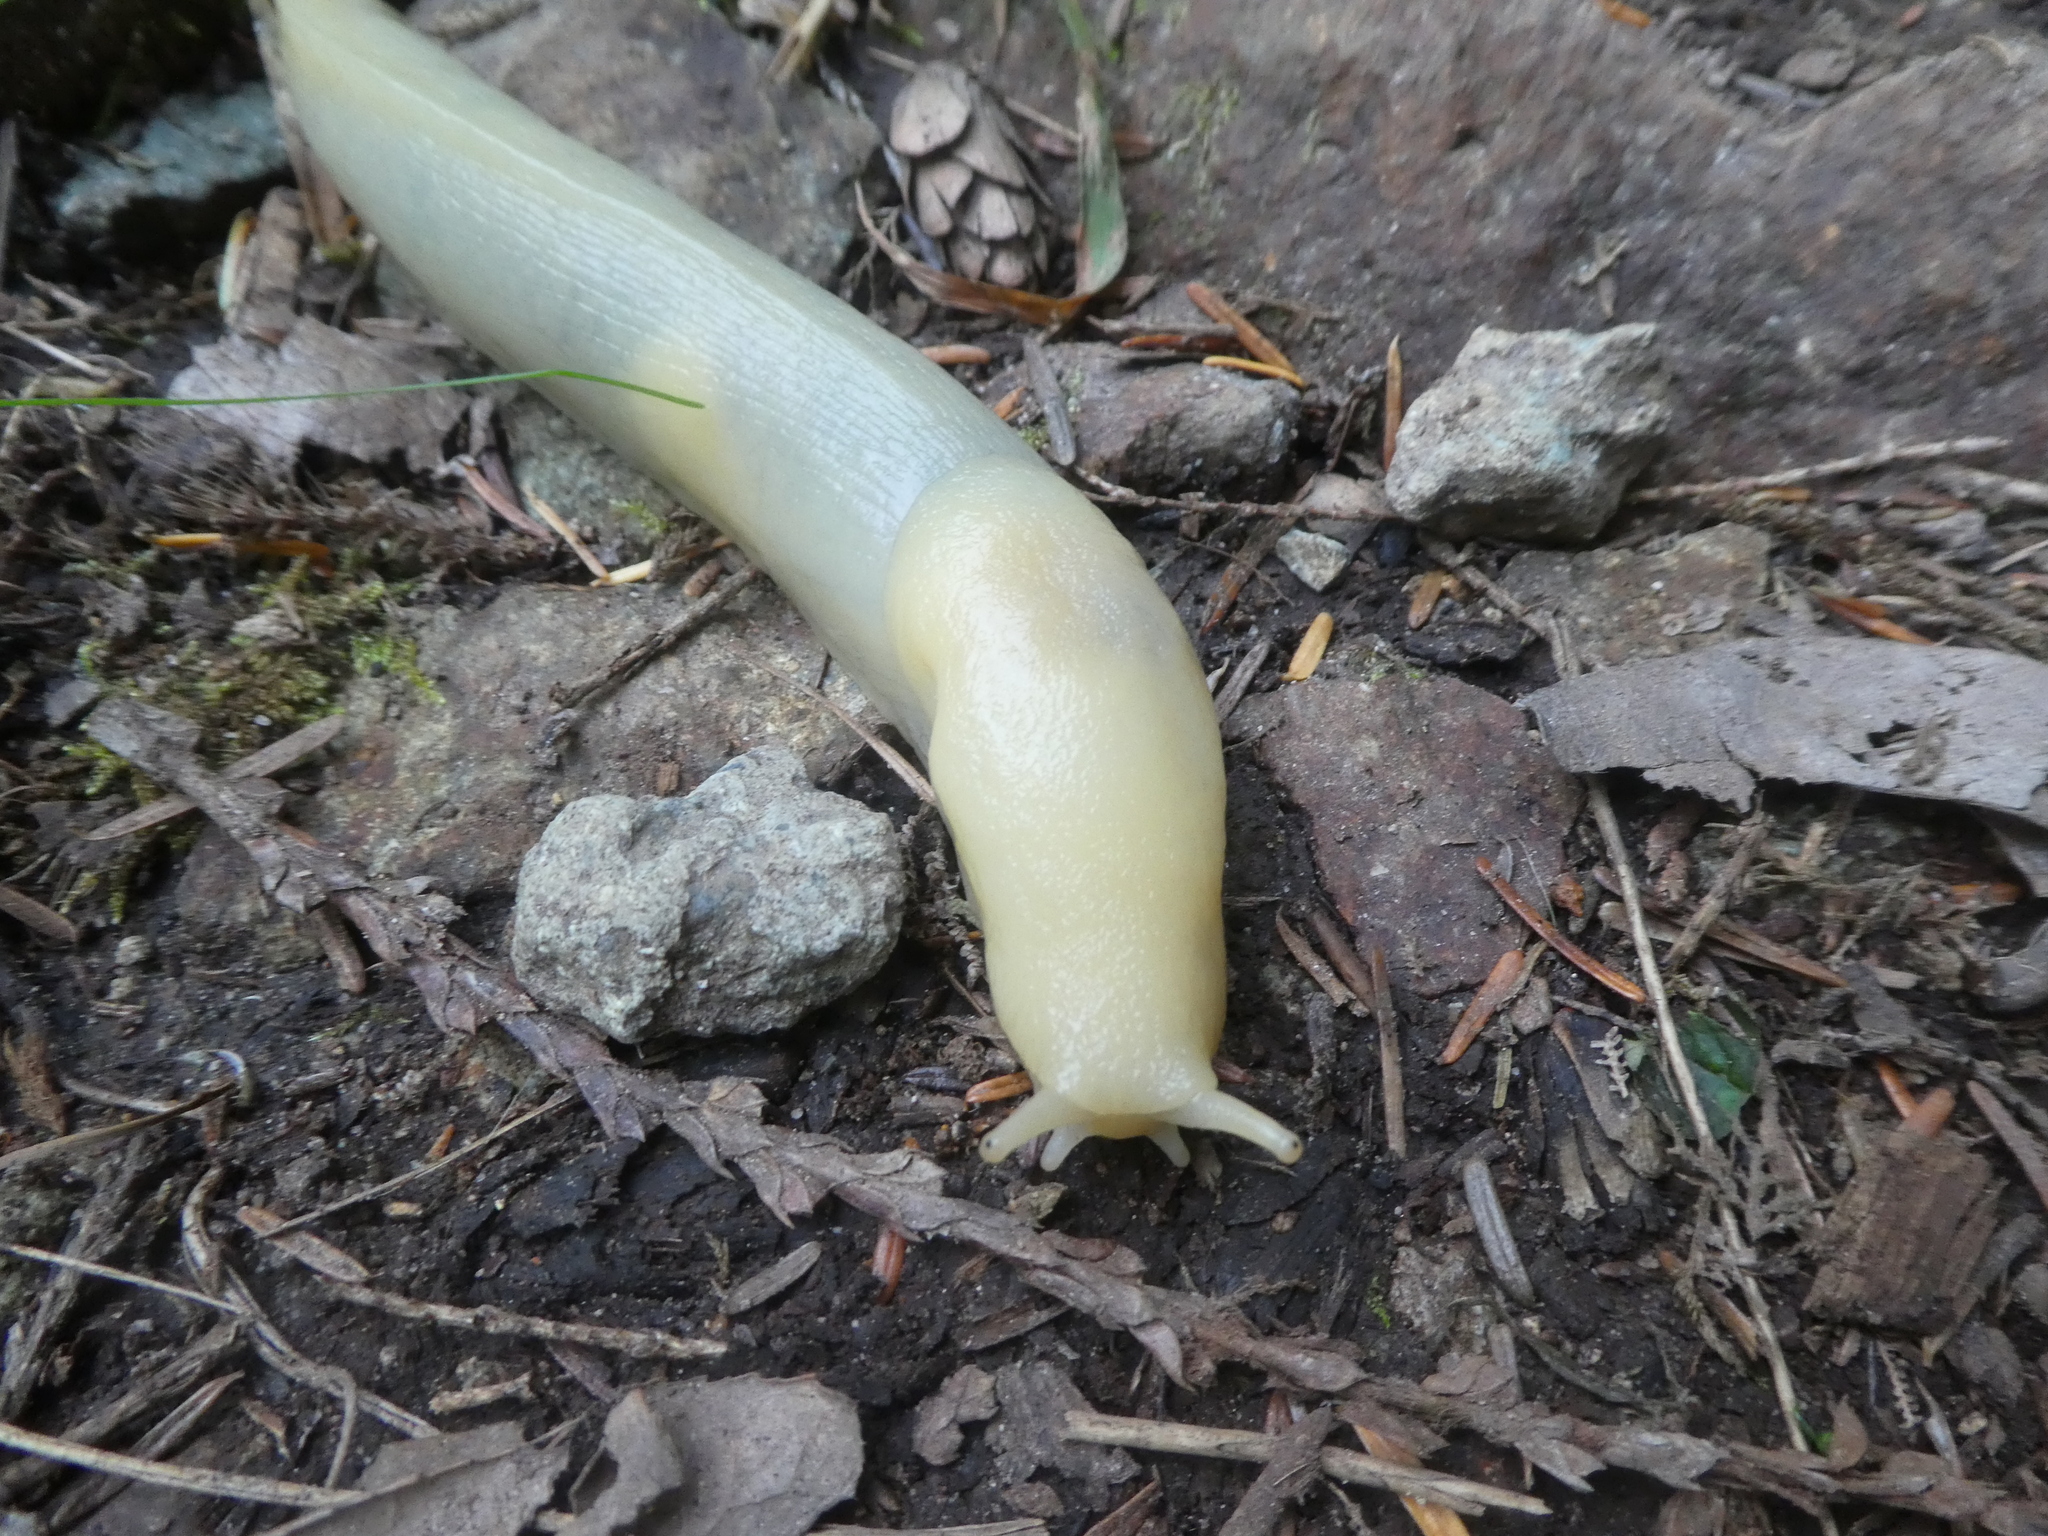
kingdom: Animalia
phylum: Mollusca
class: Gastropoda
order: Stylommatophora
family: Ariolimacidae
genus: Ariolimax
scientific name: Ariolimax columbianus
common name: Pacific banana slug
